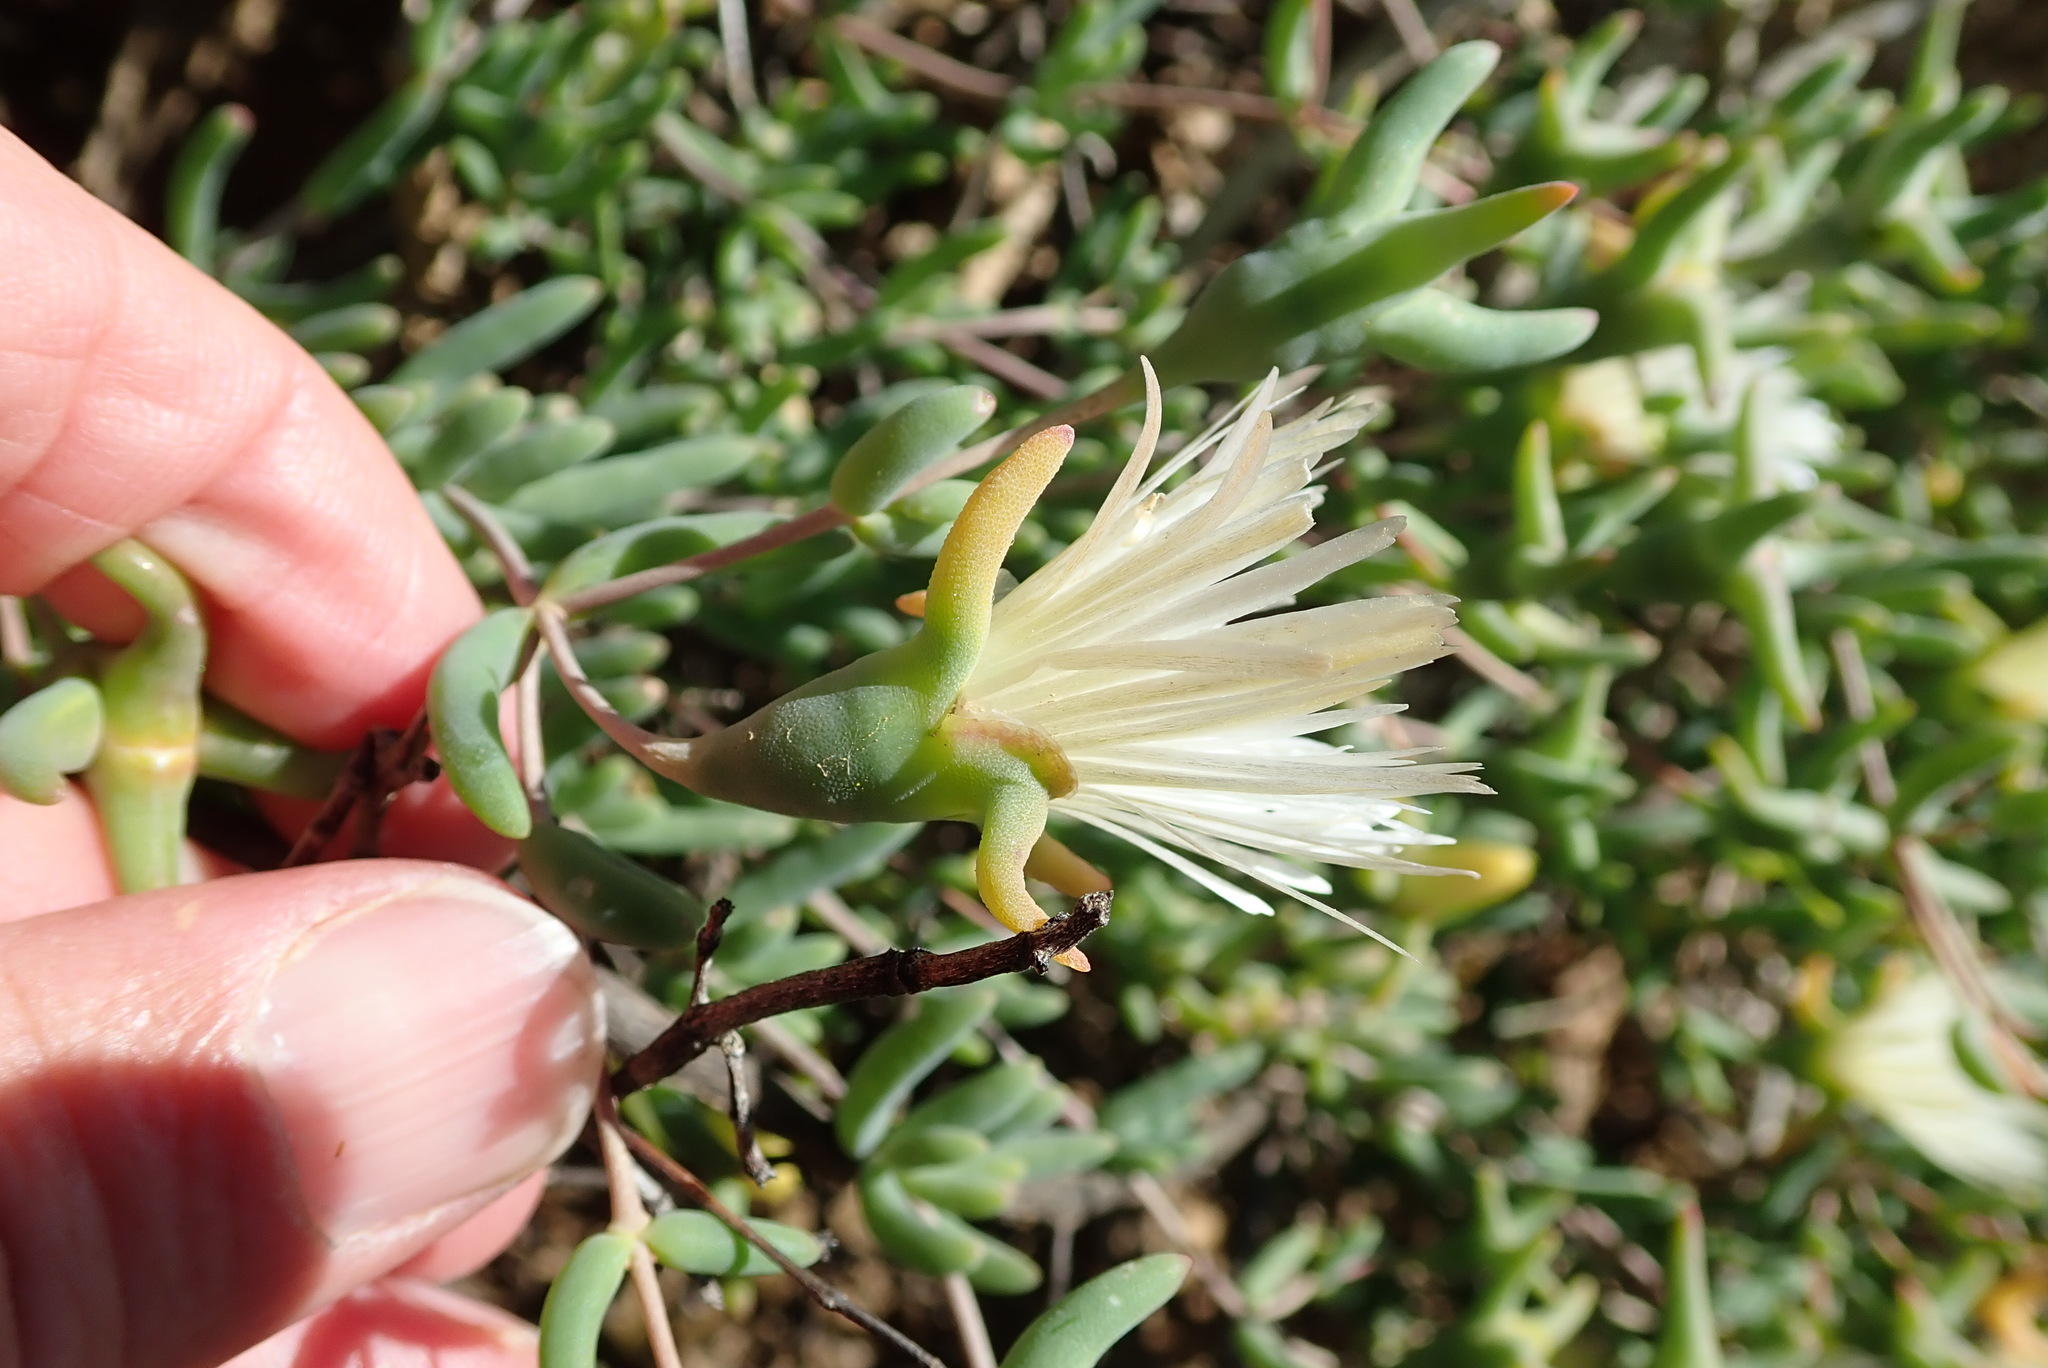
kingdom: Plantae
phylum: Tracheophyta
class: Magnoliopsida
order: Caryophyllales
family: Aizoaceae
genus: Mesembryanthemum
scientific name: Mesembryanthemum noctiflorum
